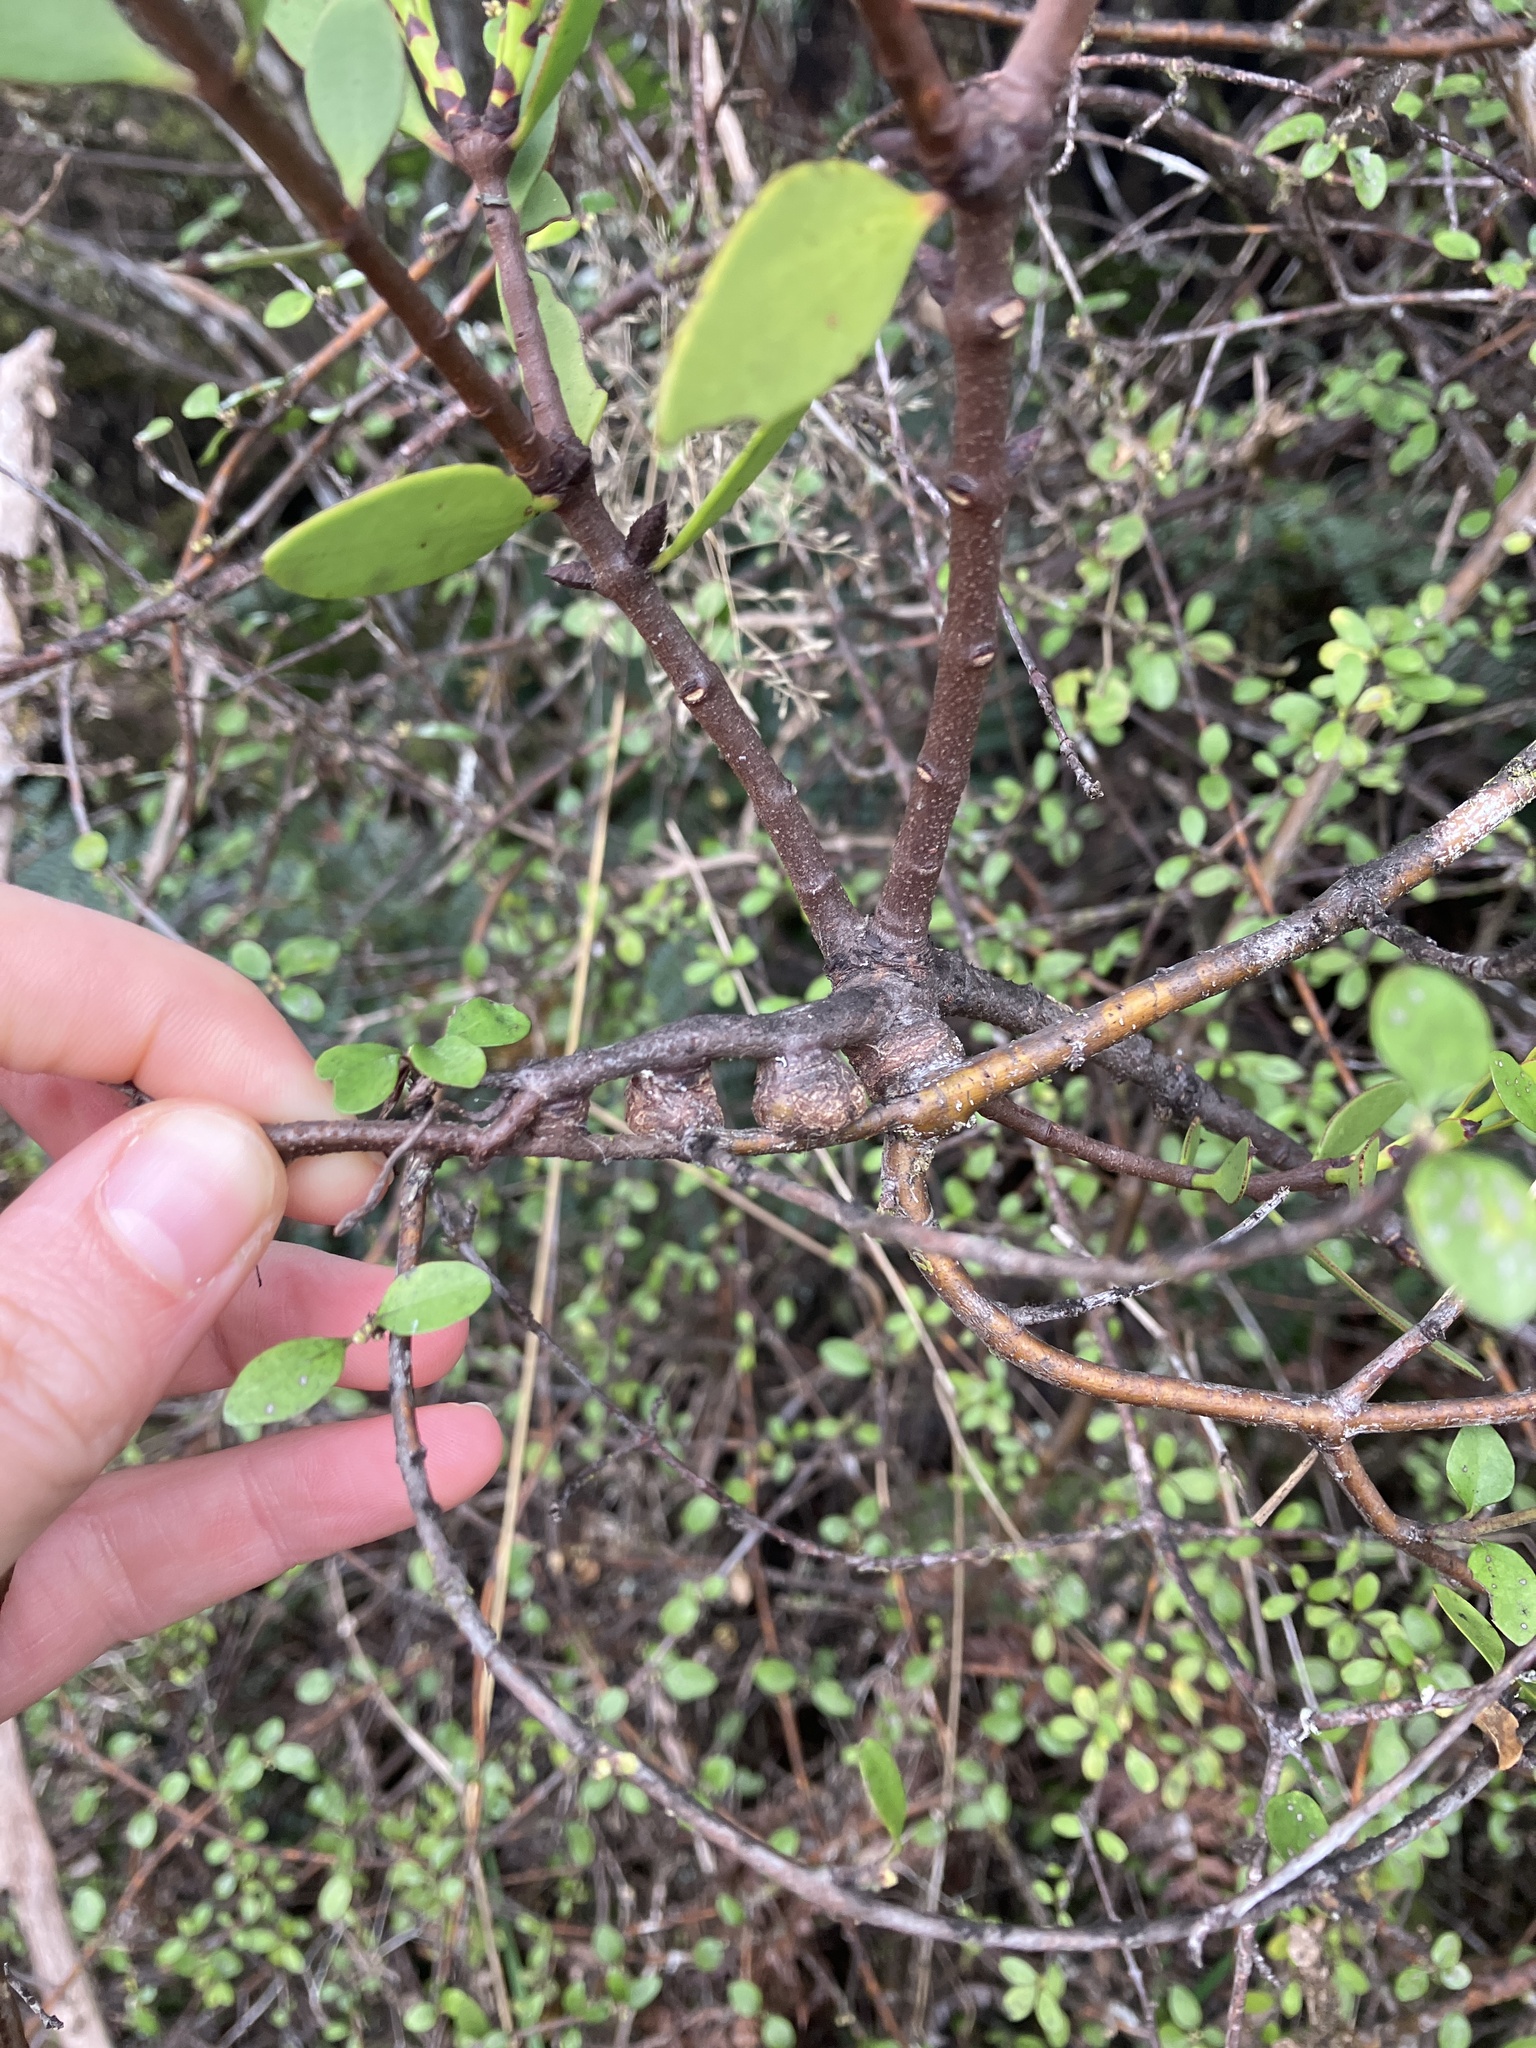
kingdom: Plantae
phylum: Tracheophyta
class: Magnoliopsida
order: Santalales
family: Loranthaceae
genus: Alepis
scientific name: Alepis flavida
